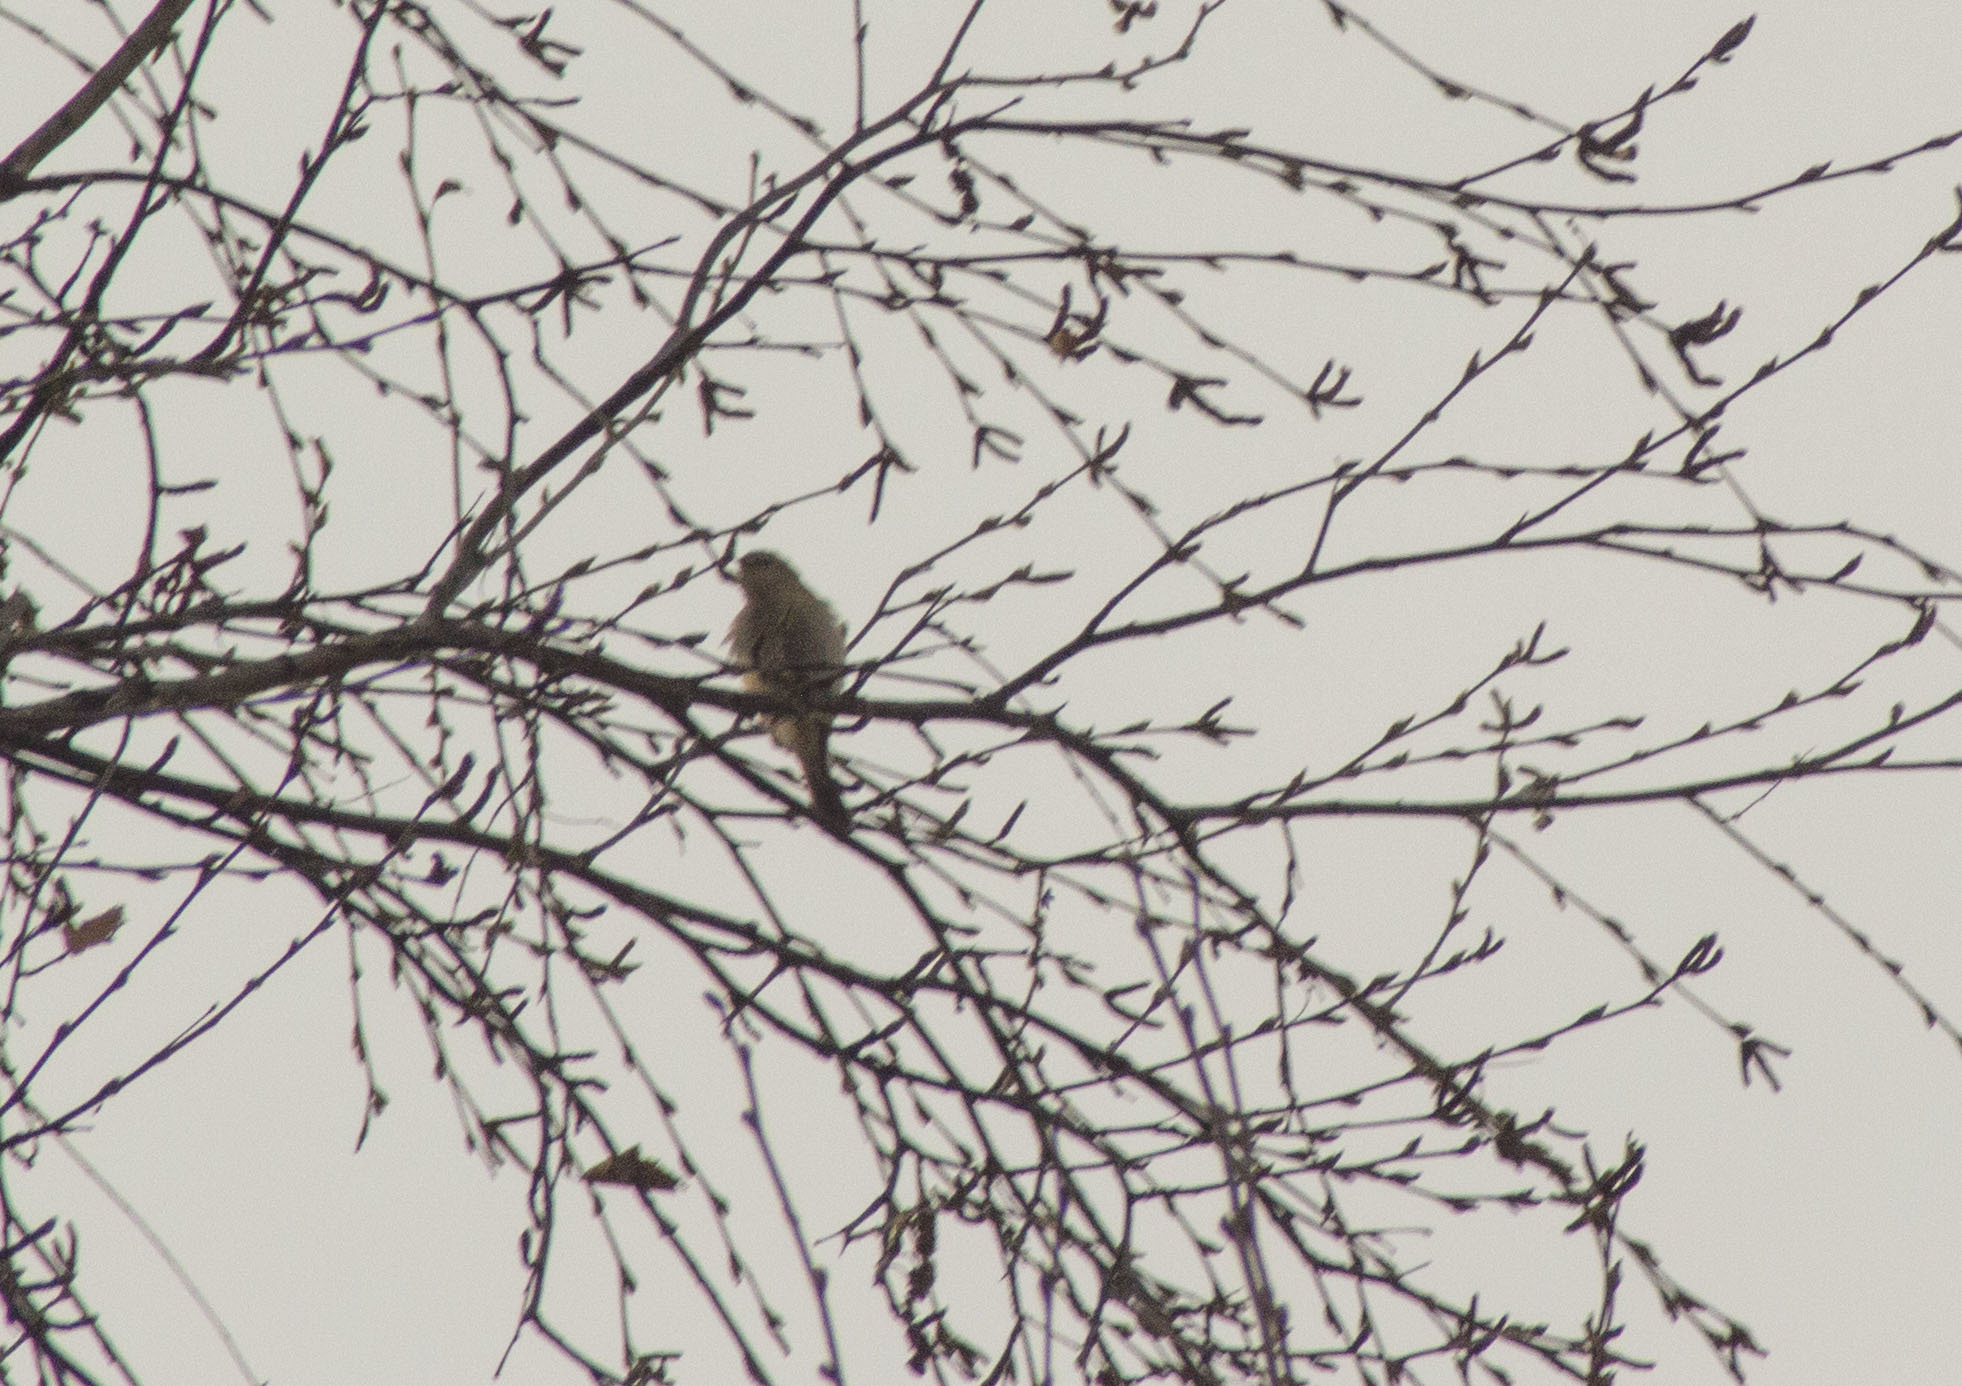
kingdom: Animalia
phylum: Chordata
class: Aves
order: Passeriformes
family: Phylloscopidae
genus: Phylloscopus
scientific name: Phylloscopus collybita
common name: Common chiffchaff
